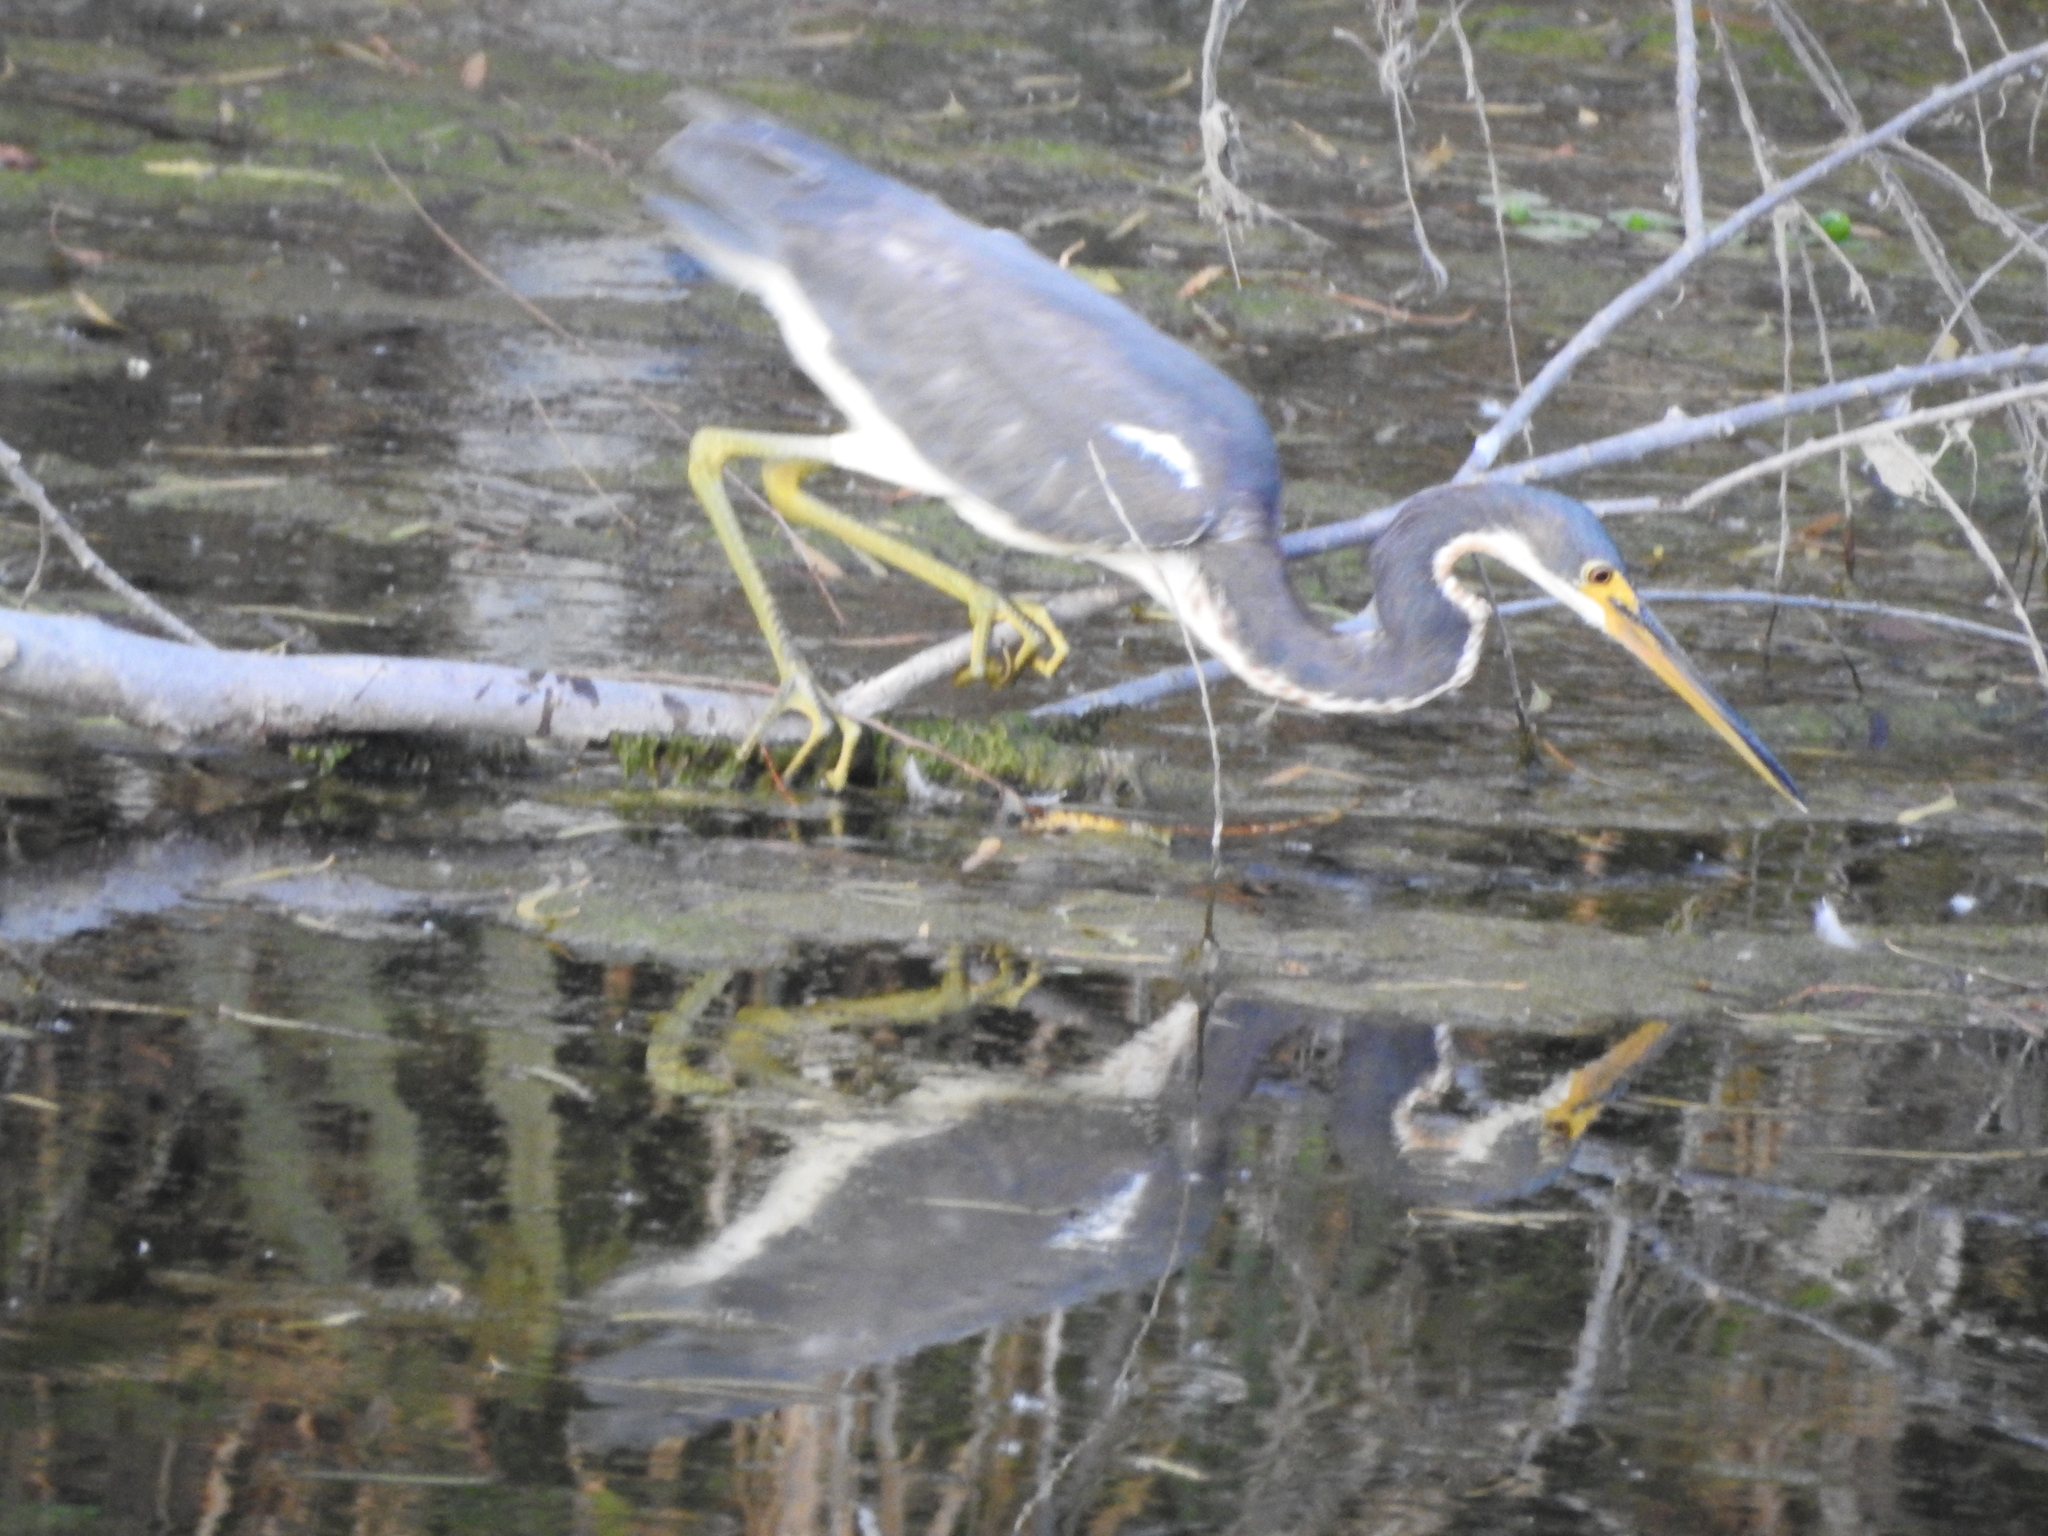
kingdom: Animalia
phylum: Chordata
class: Aves
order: Pelecaniformes
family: Ardeidae
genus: Egretta
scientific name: Egretta tricolor
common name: Tricolored heron
